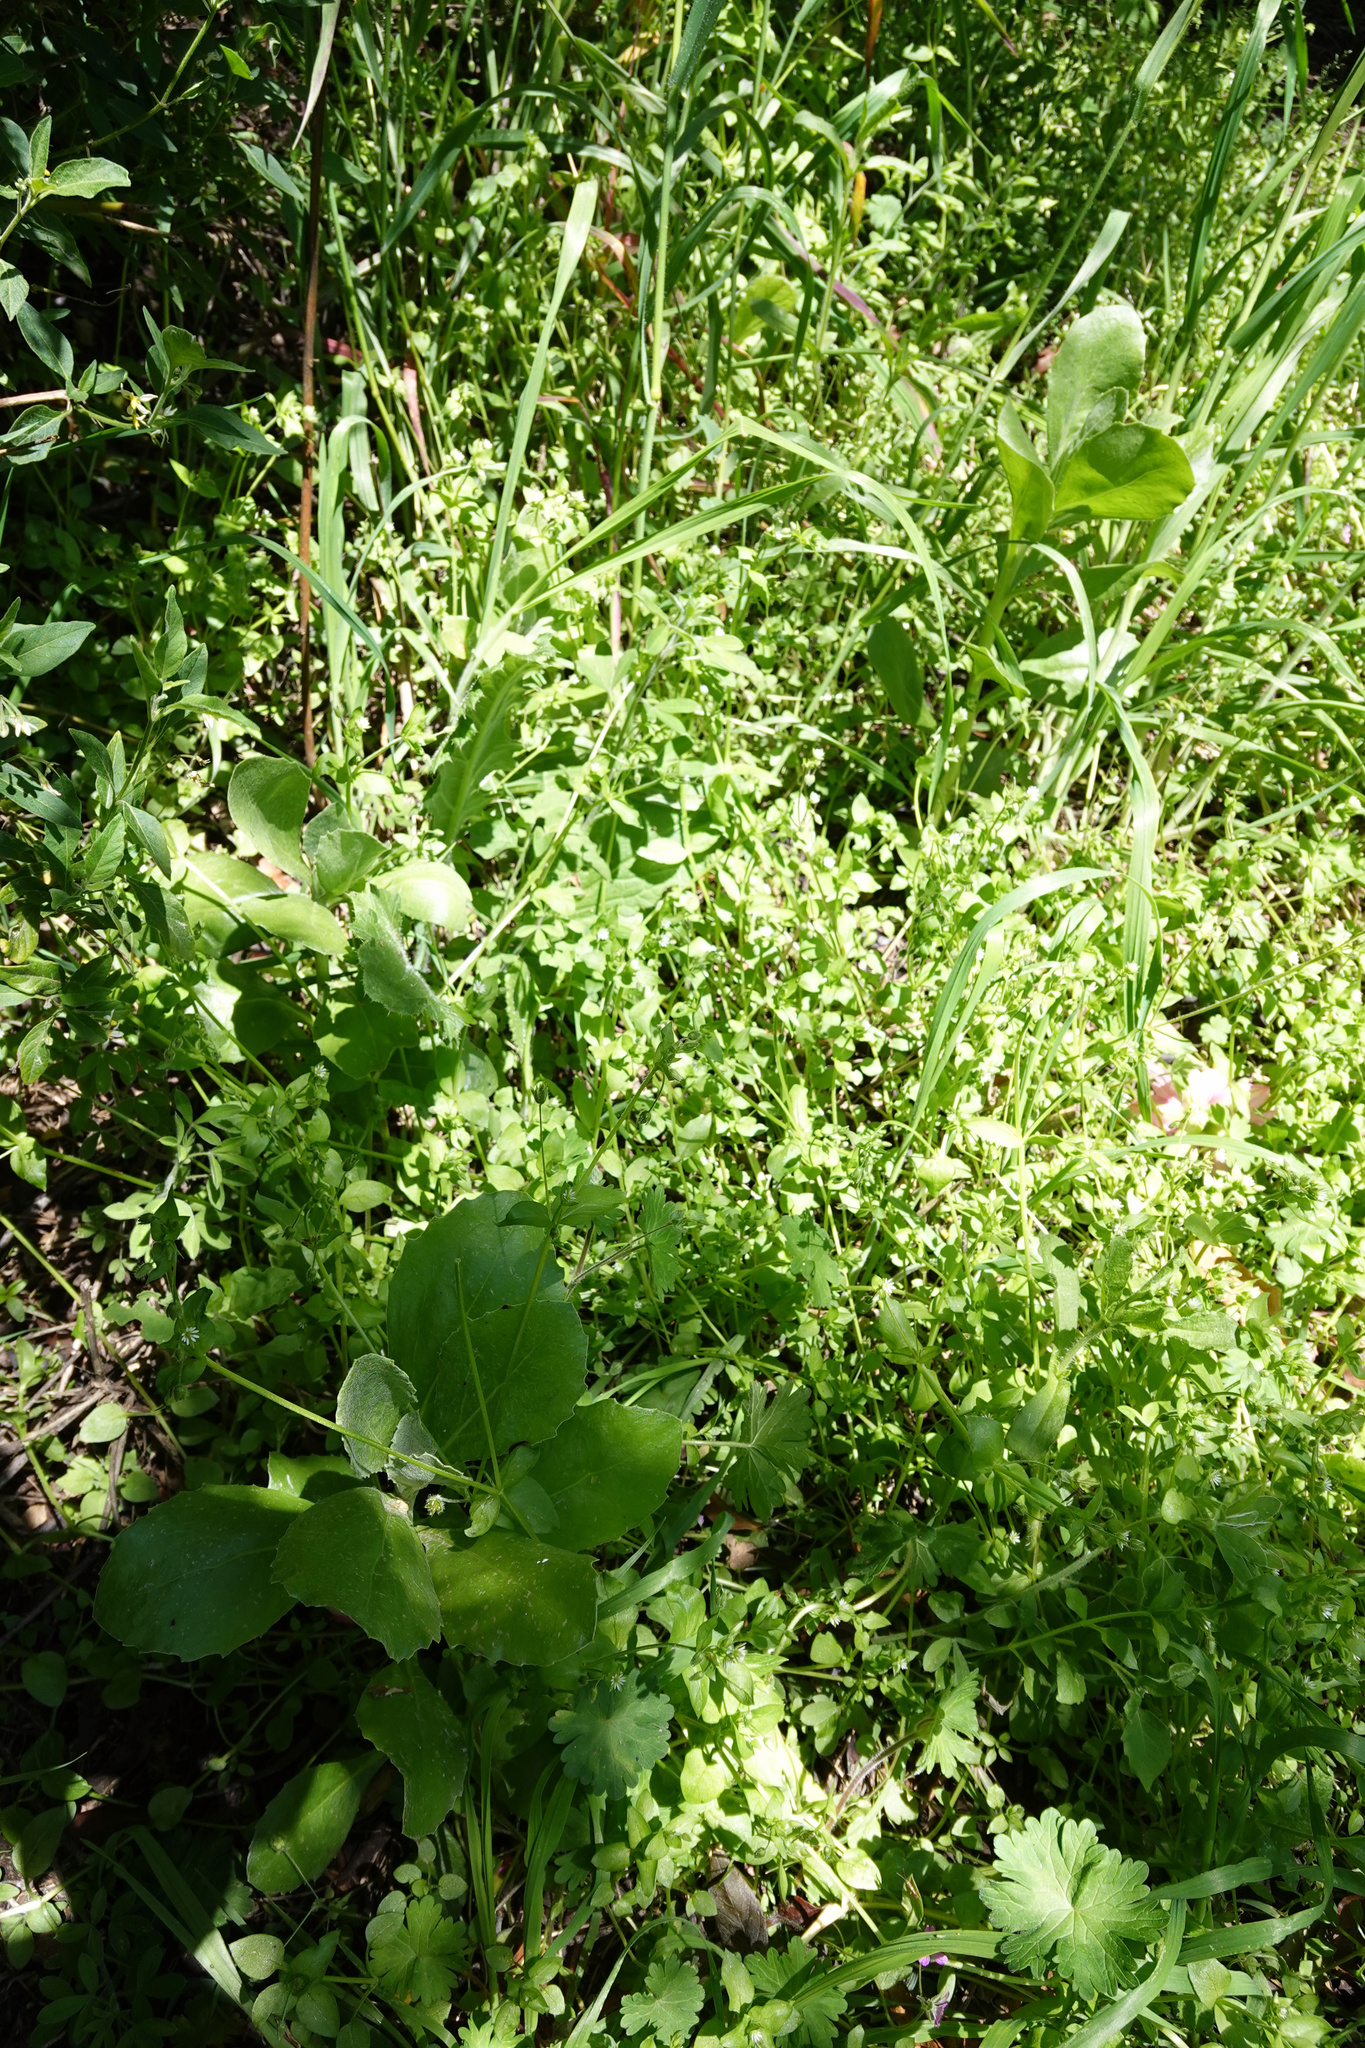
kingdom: Plantae
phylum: Tracheophyta
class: Magnoliopsida
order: Asterales
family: Asteraceae
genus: Osteospermum
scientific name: Osteospermum moniliferum
